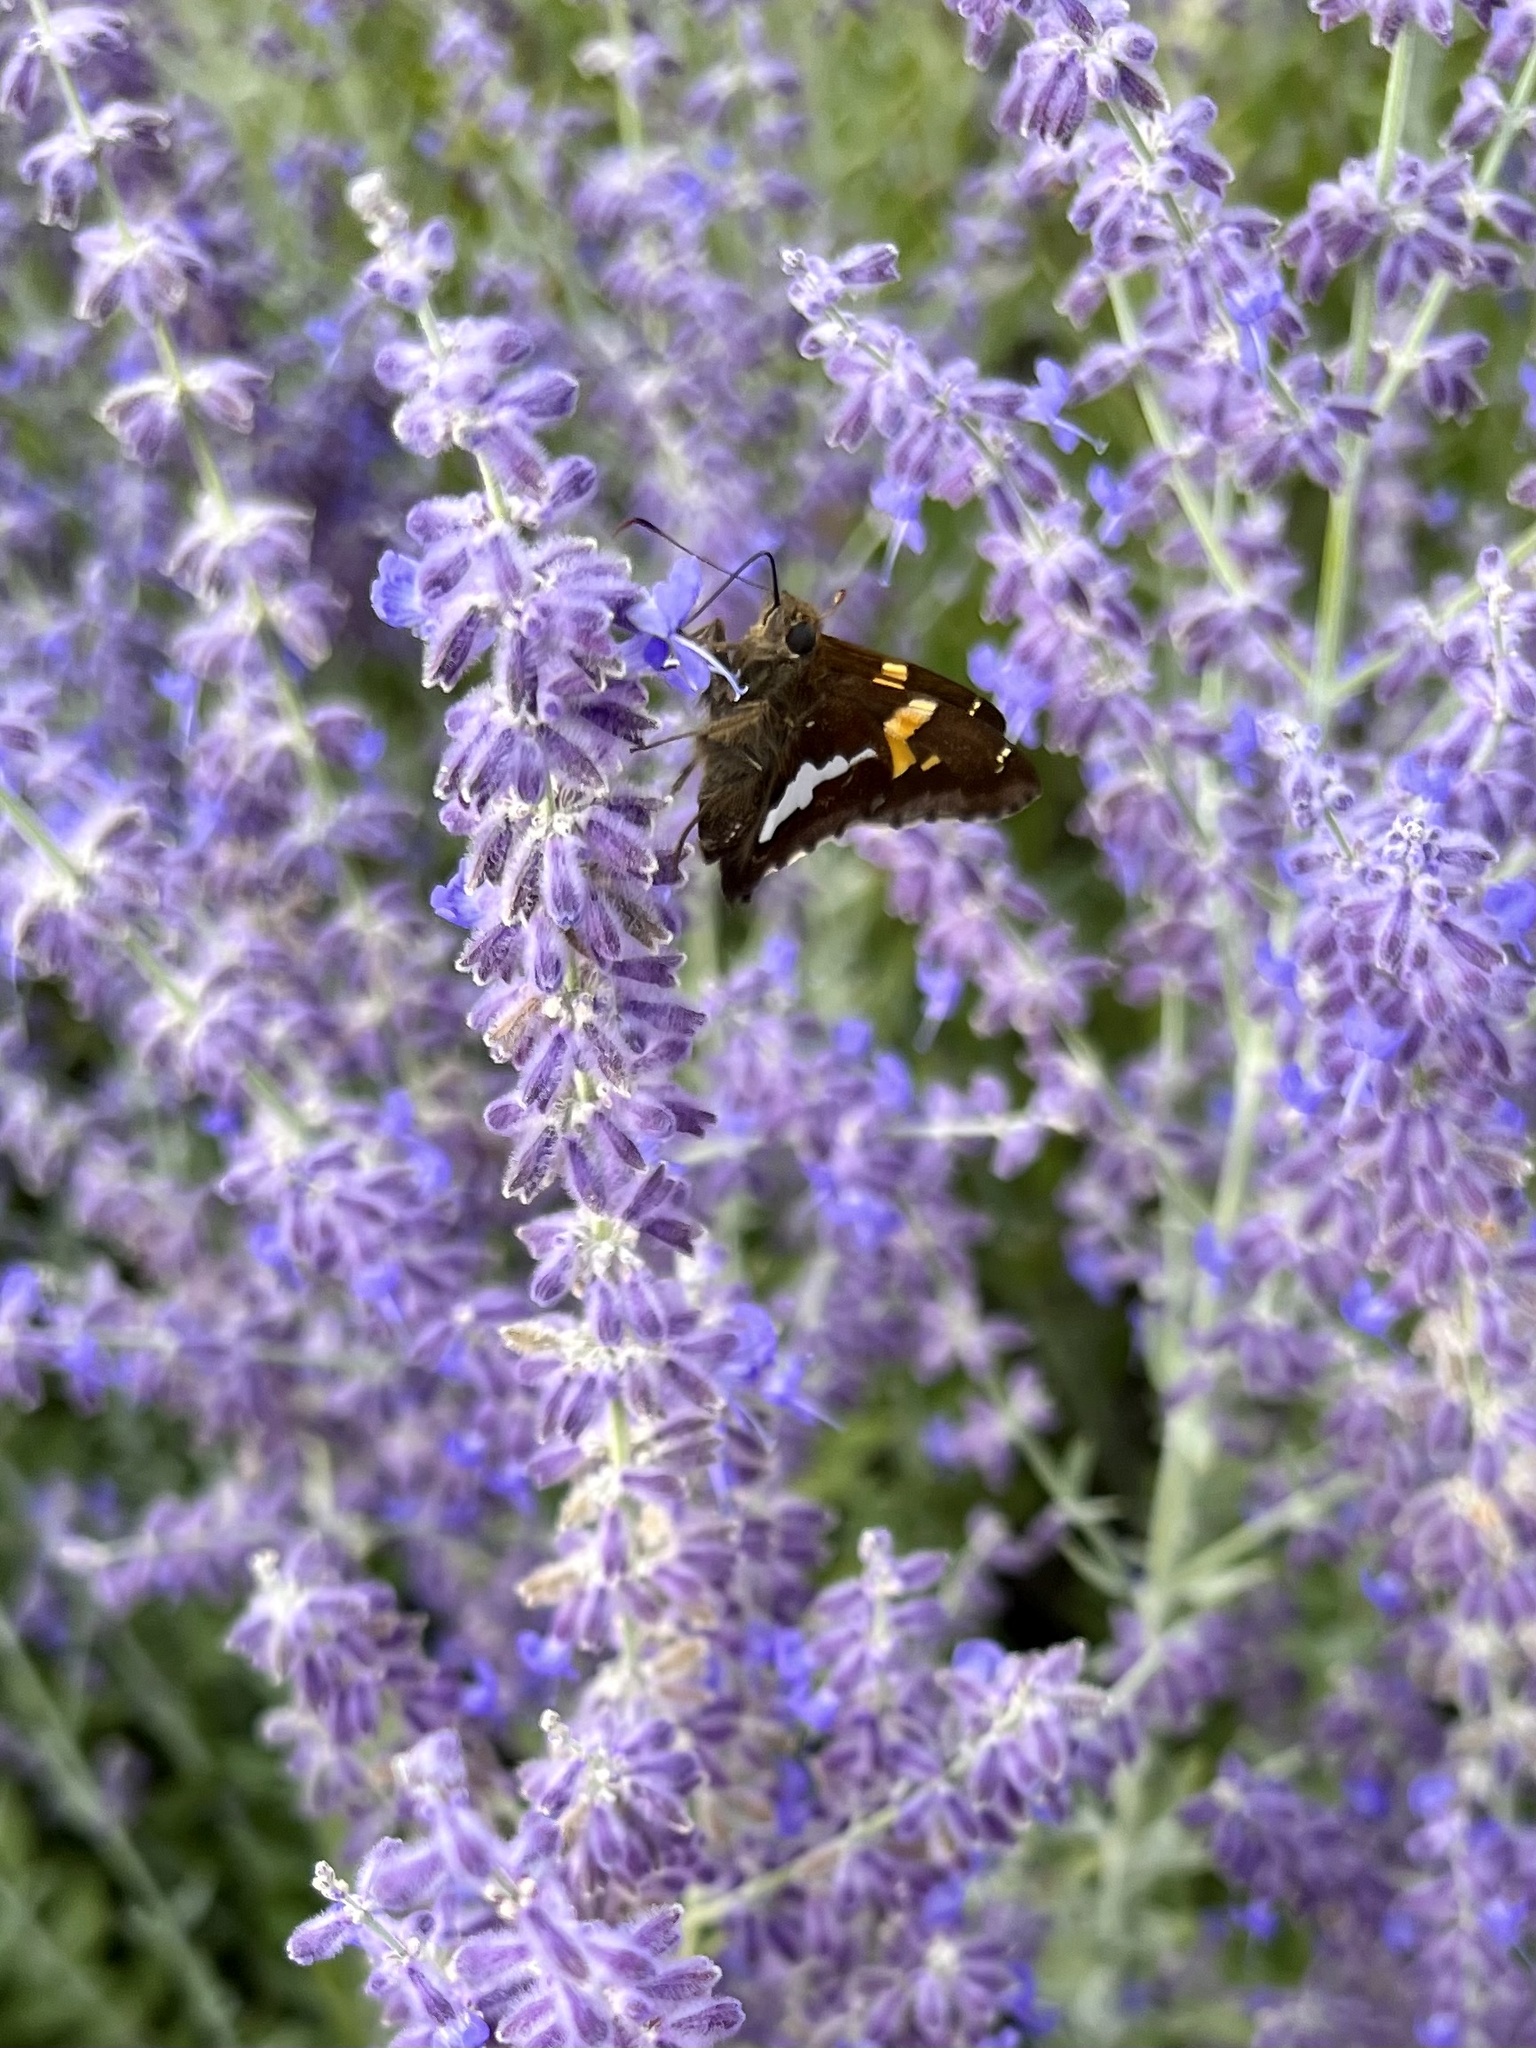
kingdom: Animalia
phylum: Arthropoda
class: Insecta
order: Lepidoptera
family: Hesperiidae
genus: Epargyreus
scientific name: Epargyreus clarus
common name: Silver-spotted skipper
